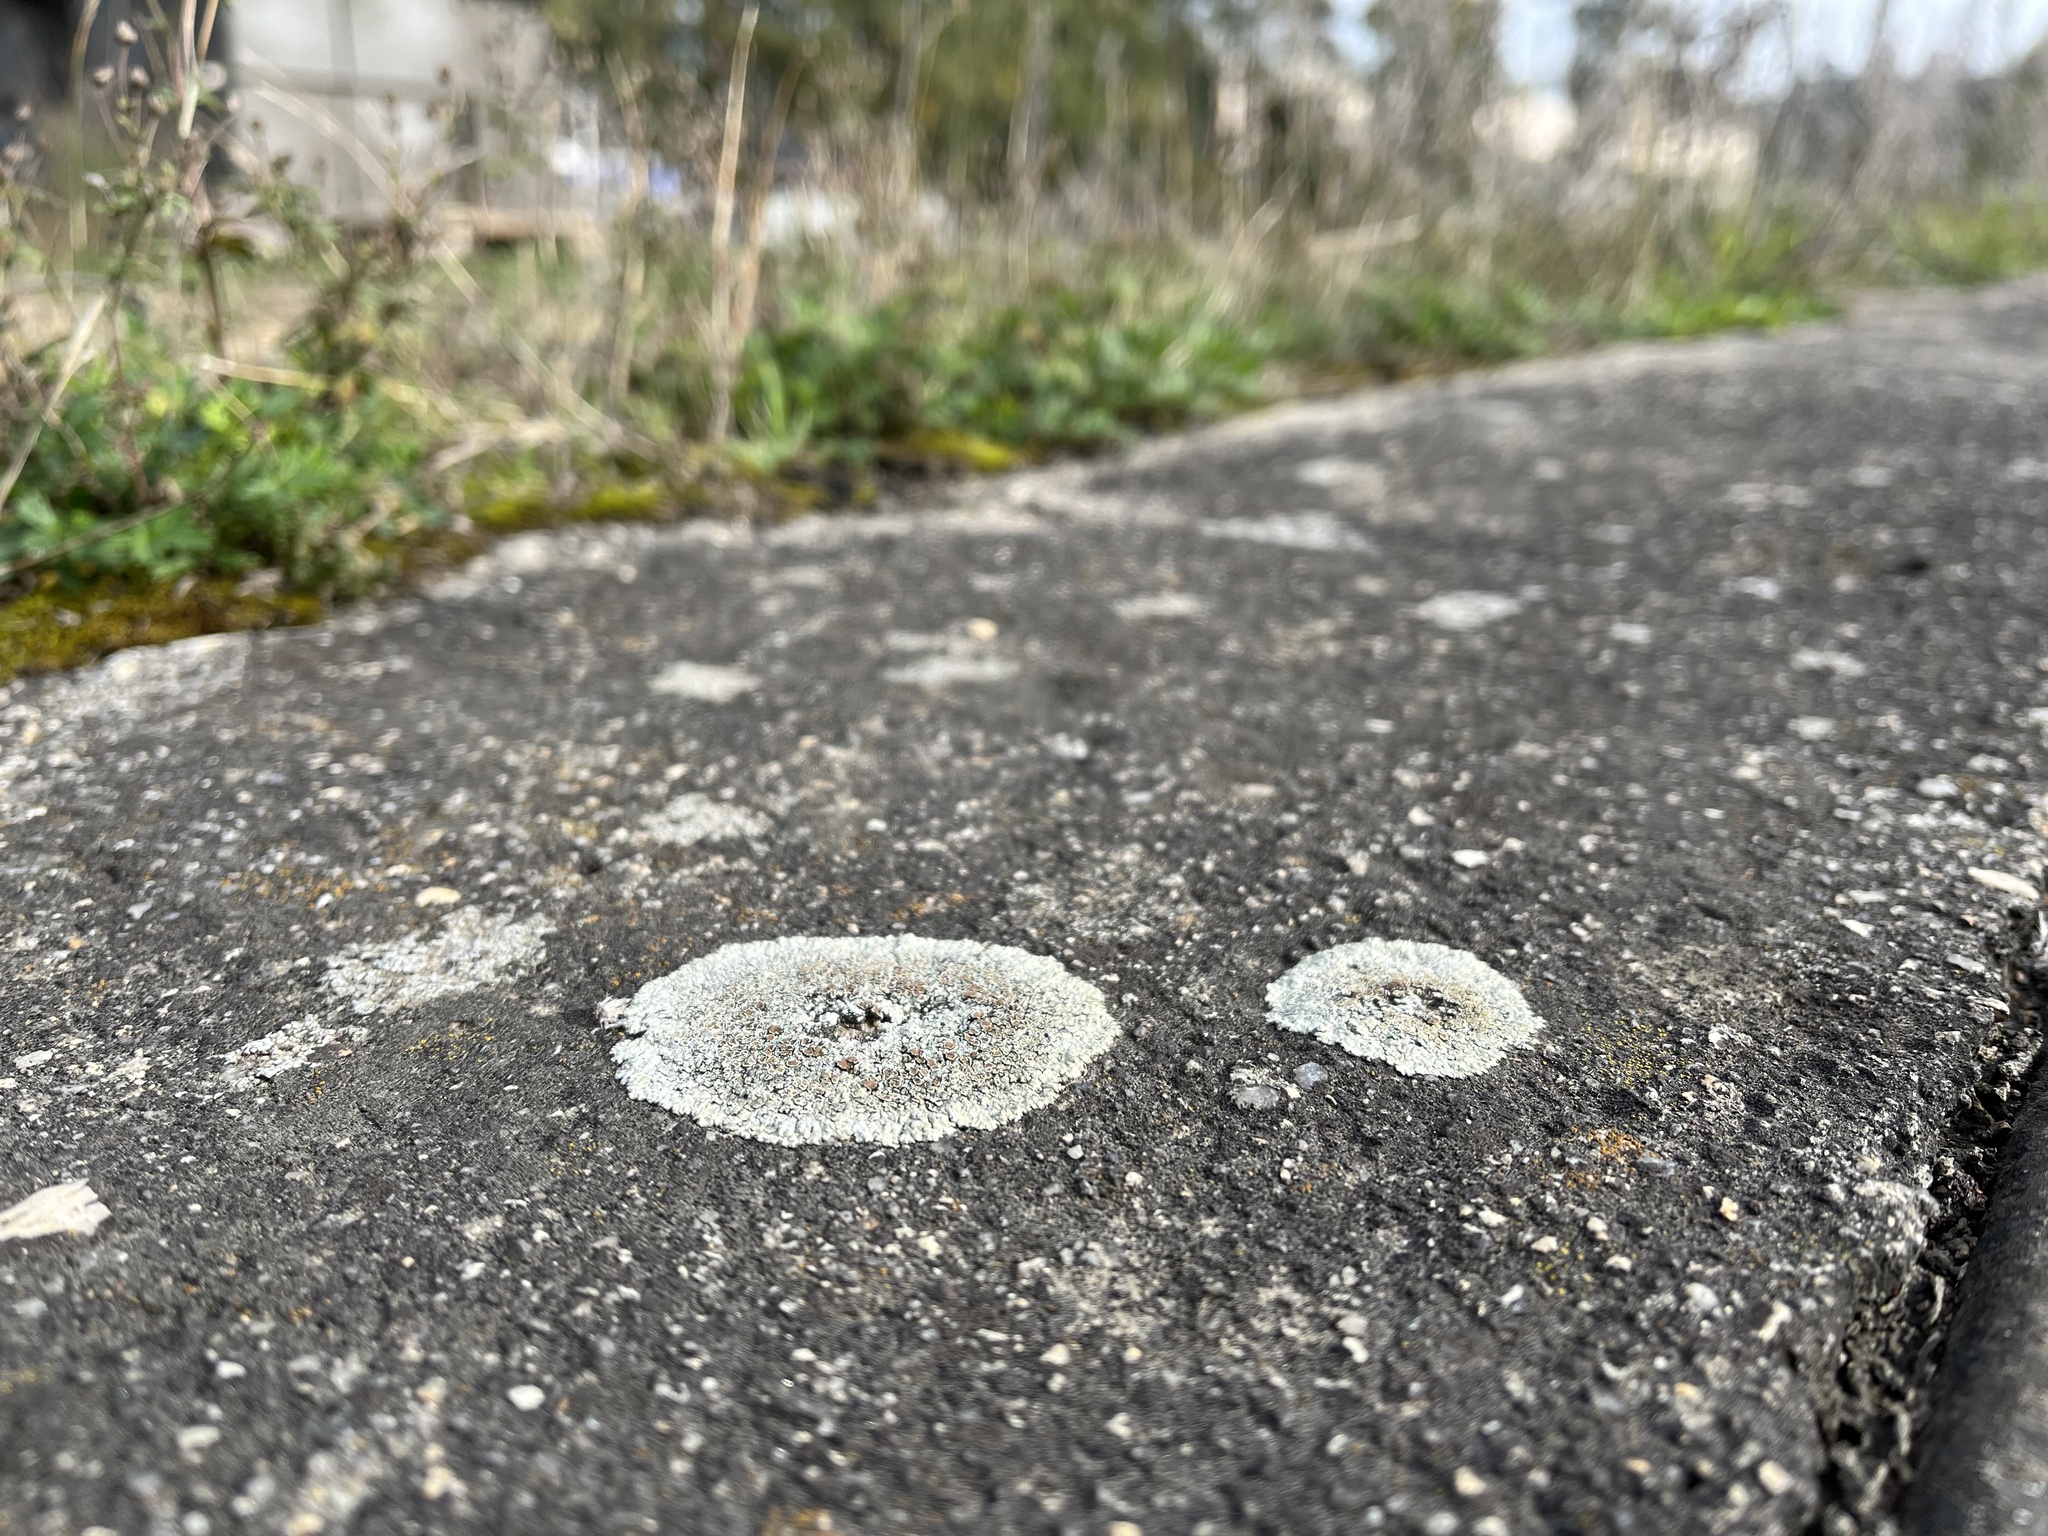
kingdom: Fungi
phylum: Ascomycota
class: Lecanoromycetes
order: Lecanorales
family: Lecanoraceae
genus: Protoparmeliopsis
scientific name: Protoparmeliopsis muralis
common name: Stonewall rim lichen
